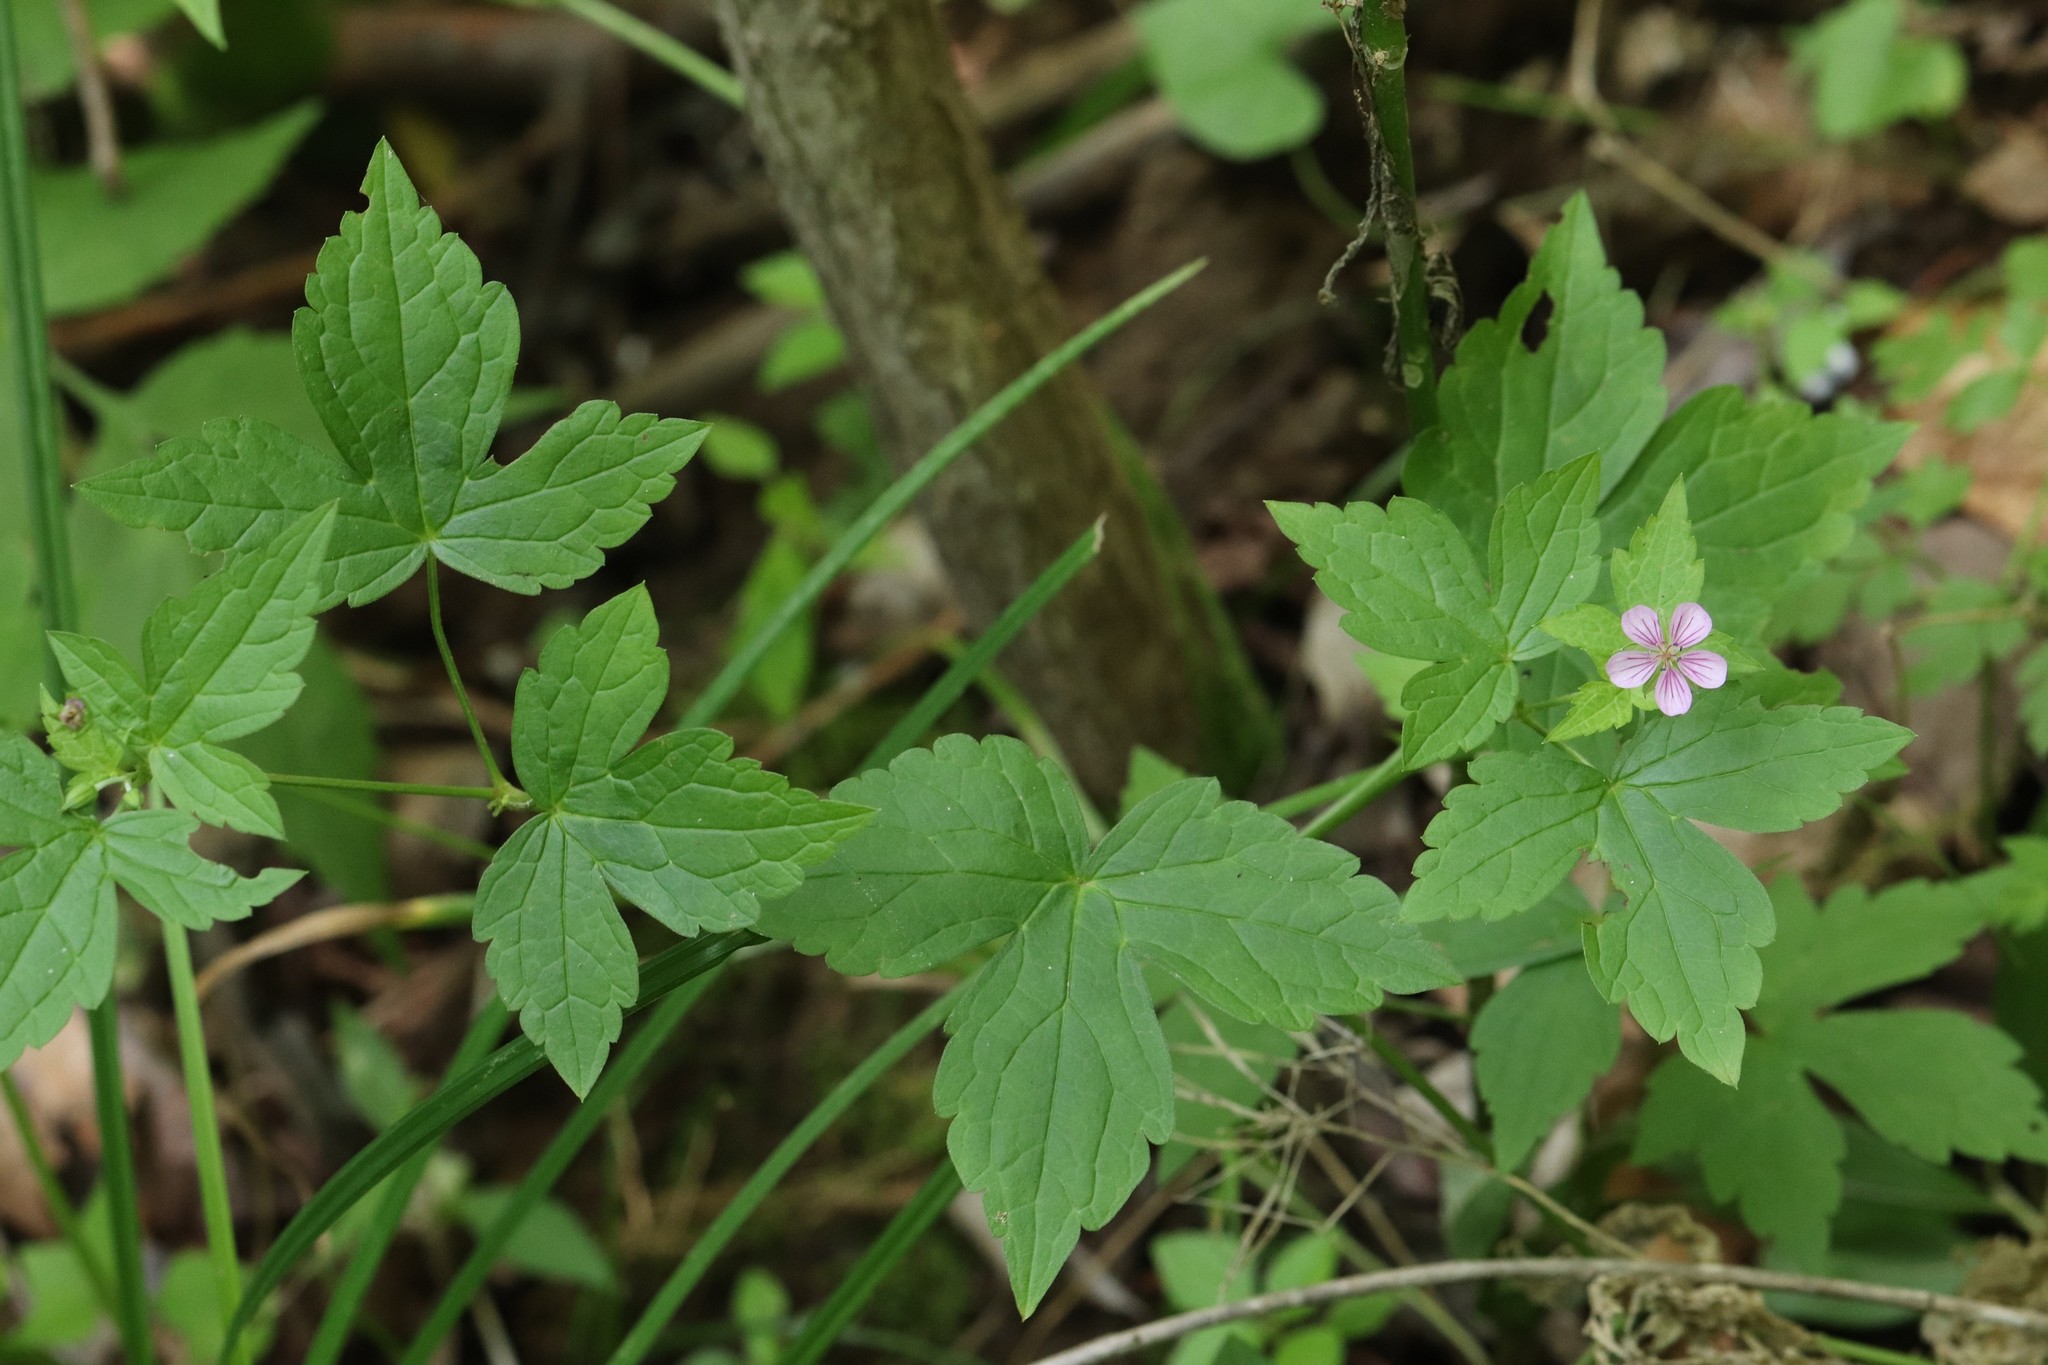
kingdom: Plantae
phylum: Tracheophyta
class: Magnoliopsida
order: Geraniales
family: Geraniaceae
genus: Geranium
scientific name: Geranium wilfordii
